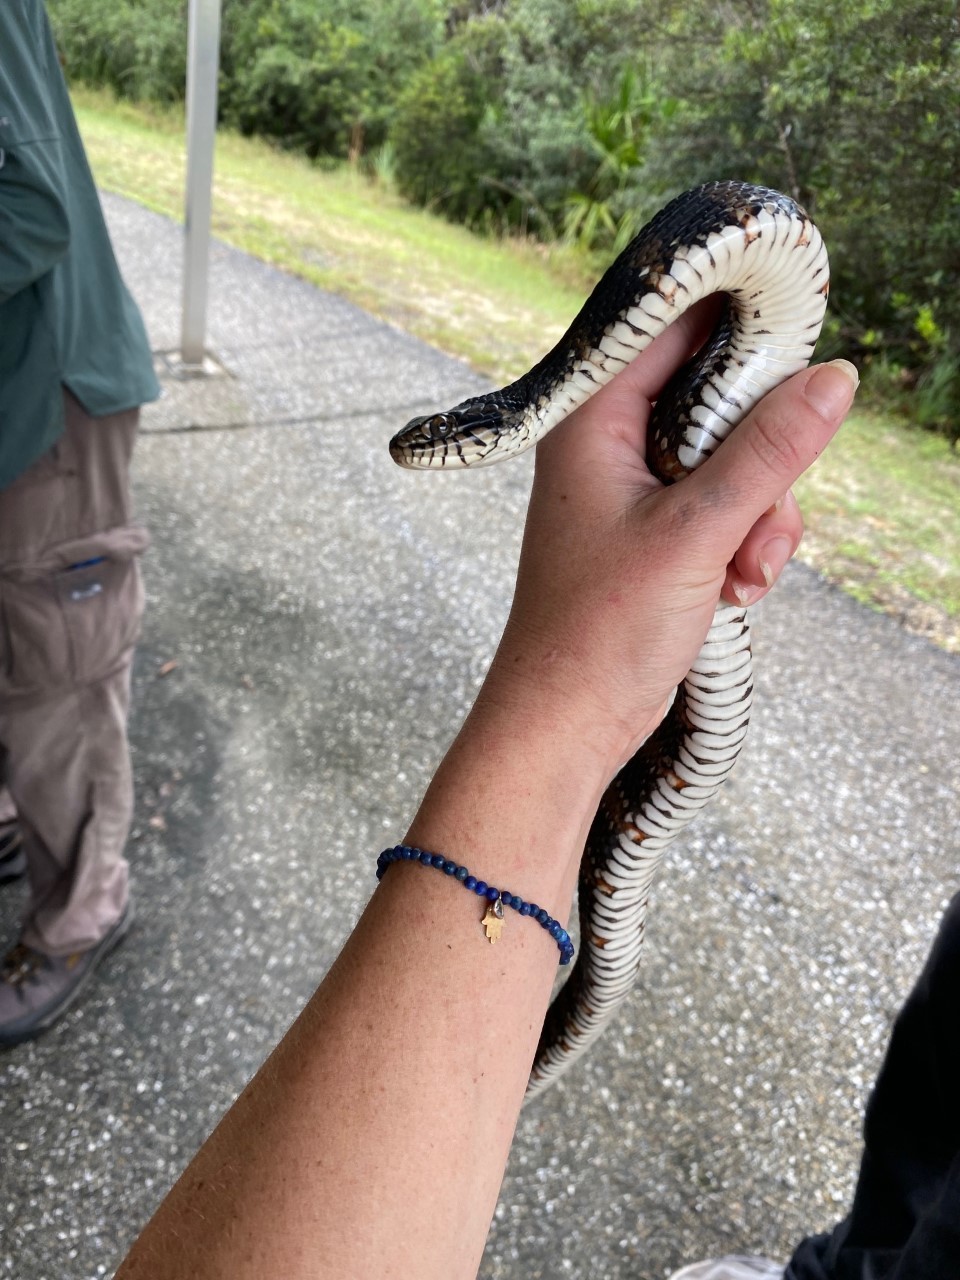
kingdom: Animalia
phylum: Chordata
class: Squamata
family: Colubridae
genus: Nerodia
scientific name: Nerodia fasciata
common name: Southern water snake
